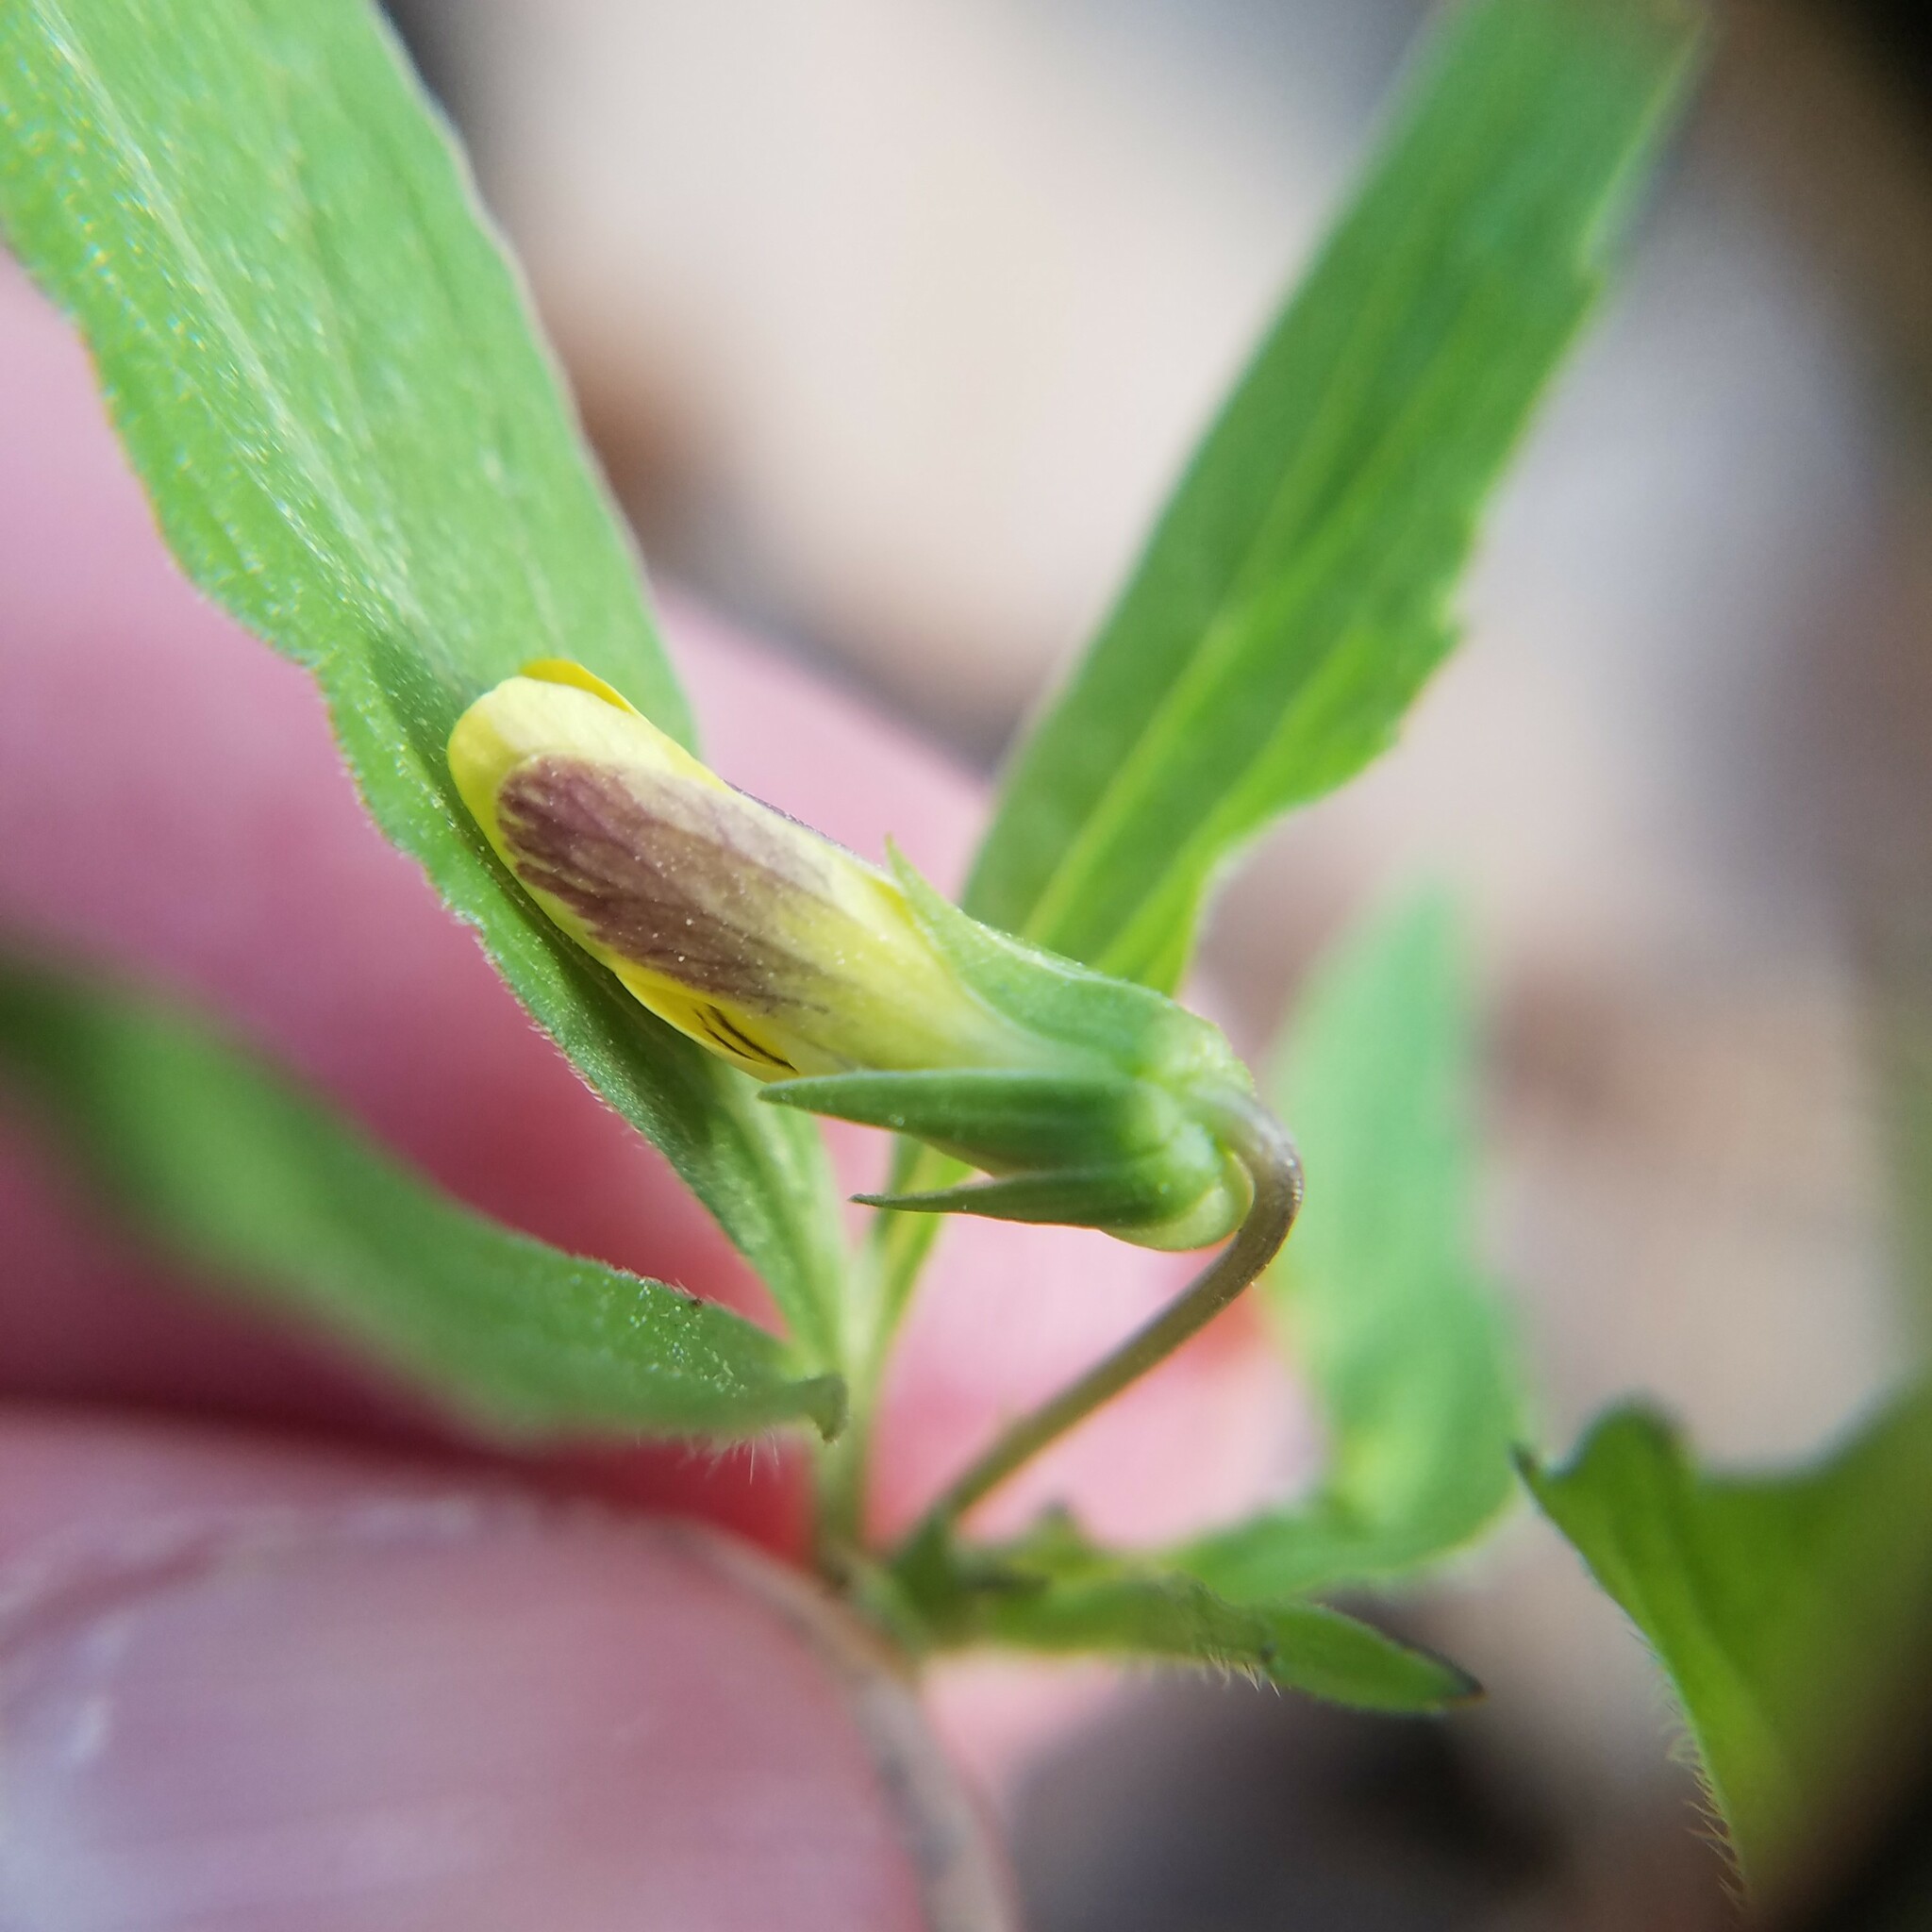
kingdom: Plantae
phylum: Tracheophyta
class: Magnoliopsida
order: Malpighiales
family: Violaceae
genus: Viola
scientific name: Viola tripartita
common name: Three-part violet
